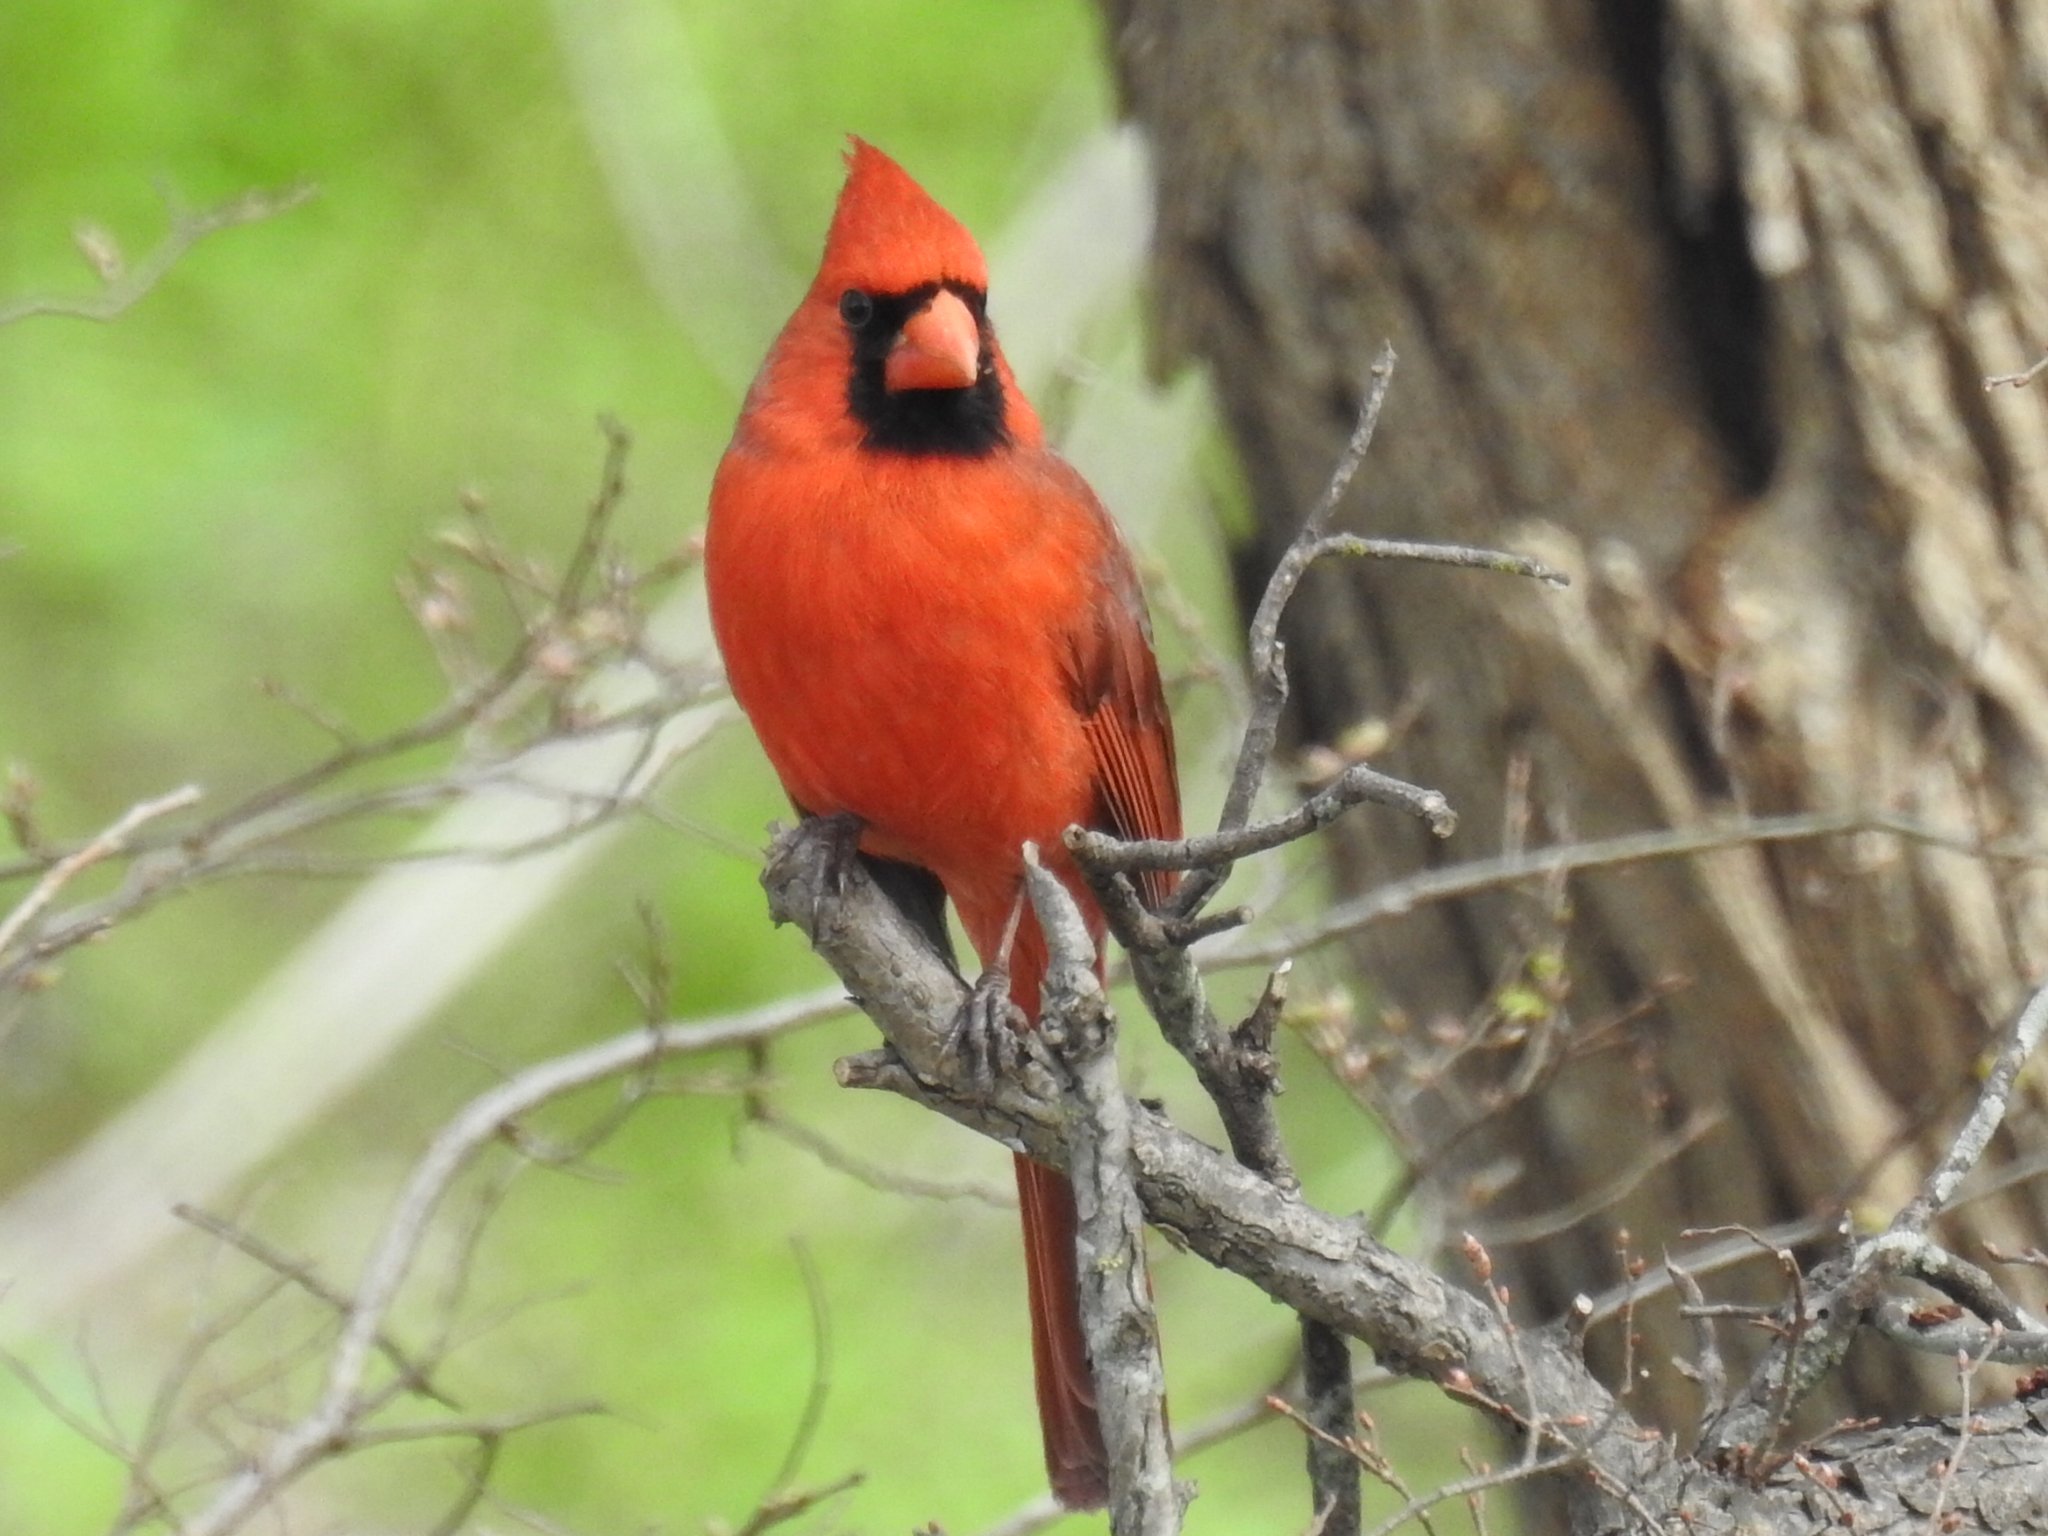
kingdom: Animalia
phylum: Chordata
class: Aves
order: Passeriformes
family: Cardinalidae
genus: Cardinalis
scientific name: Cardinalis cardinalis
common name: Northern cardinal
